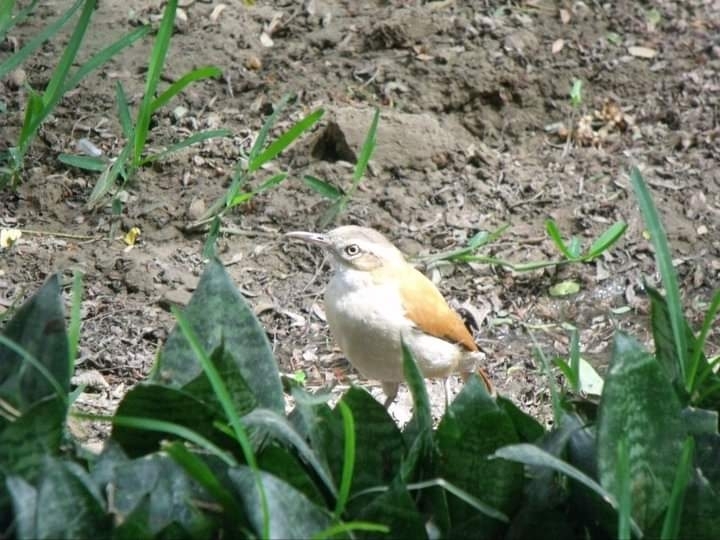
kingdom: Animalia
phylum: Chordata
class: Aves
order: Passeriformes
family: Furnariidae
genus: Furnarius
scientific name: Furnarius leucopus
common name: Pale-legged hornero
